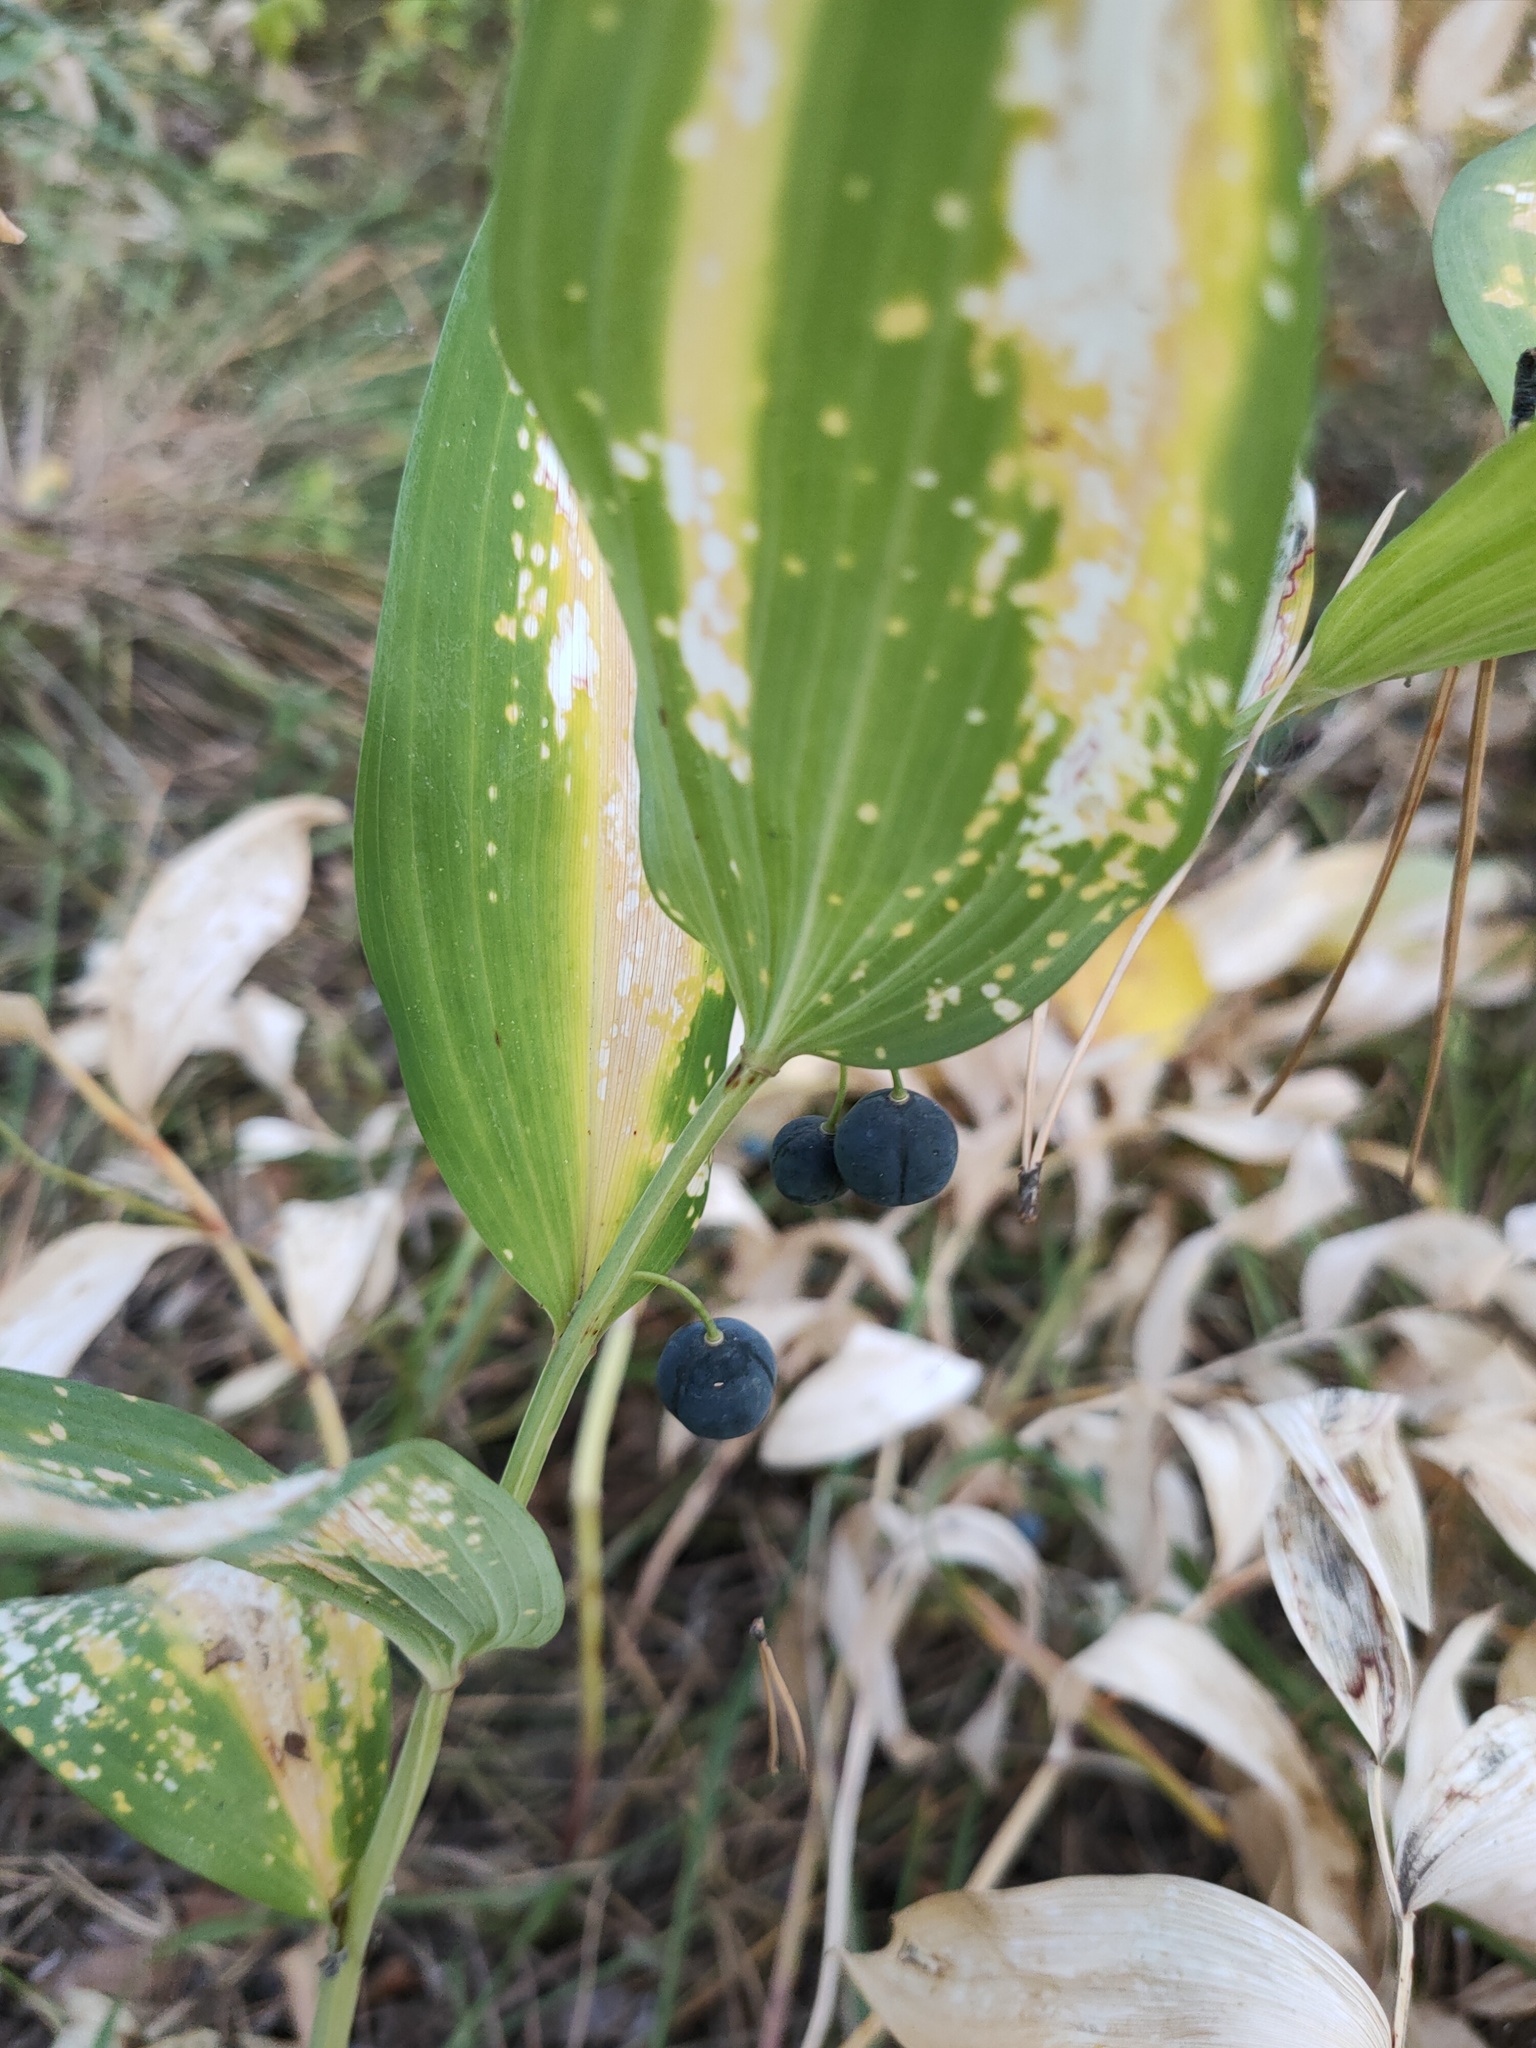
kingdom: Plantae
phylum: Tracheophyta
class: Liliopsida
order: Asparagales
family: Asparagaceae
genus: Polygonatum
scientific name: Polygonatum odoratum
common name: Angular solomon's-seal
